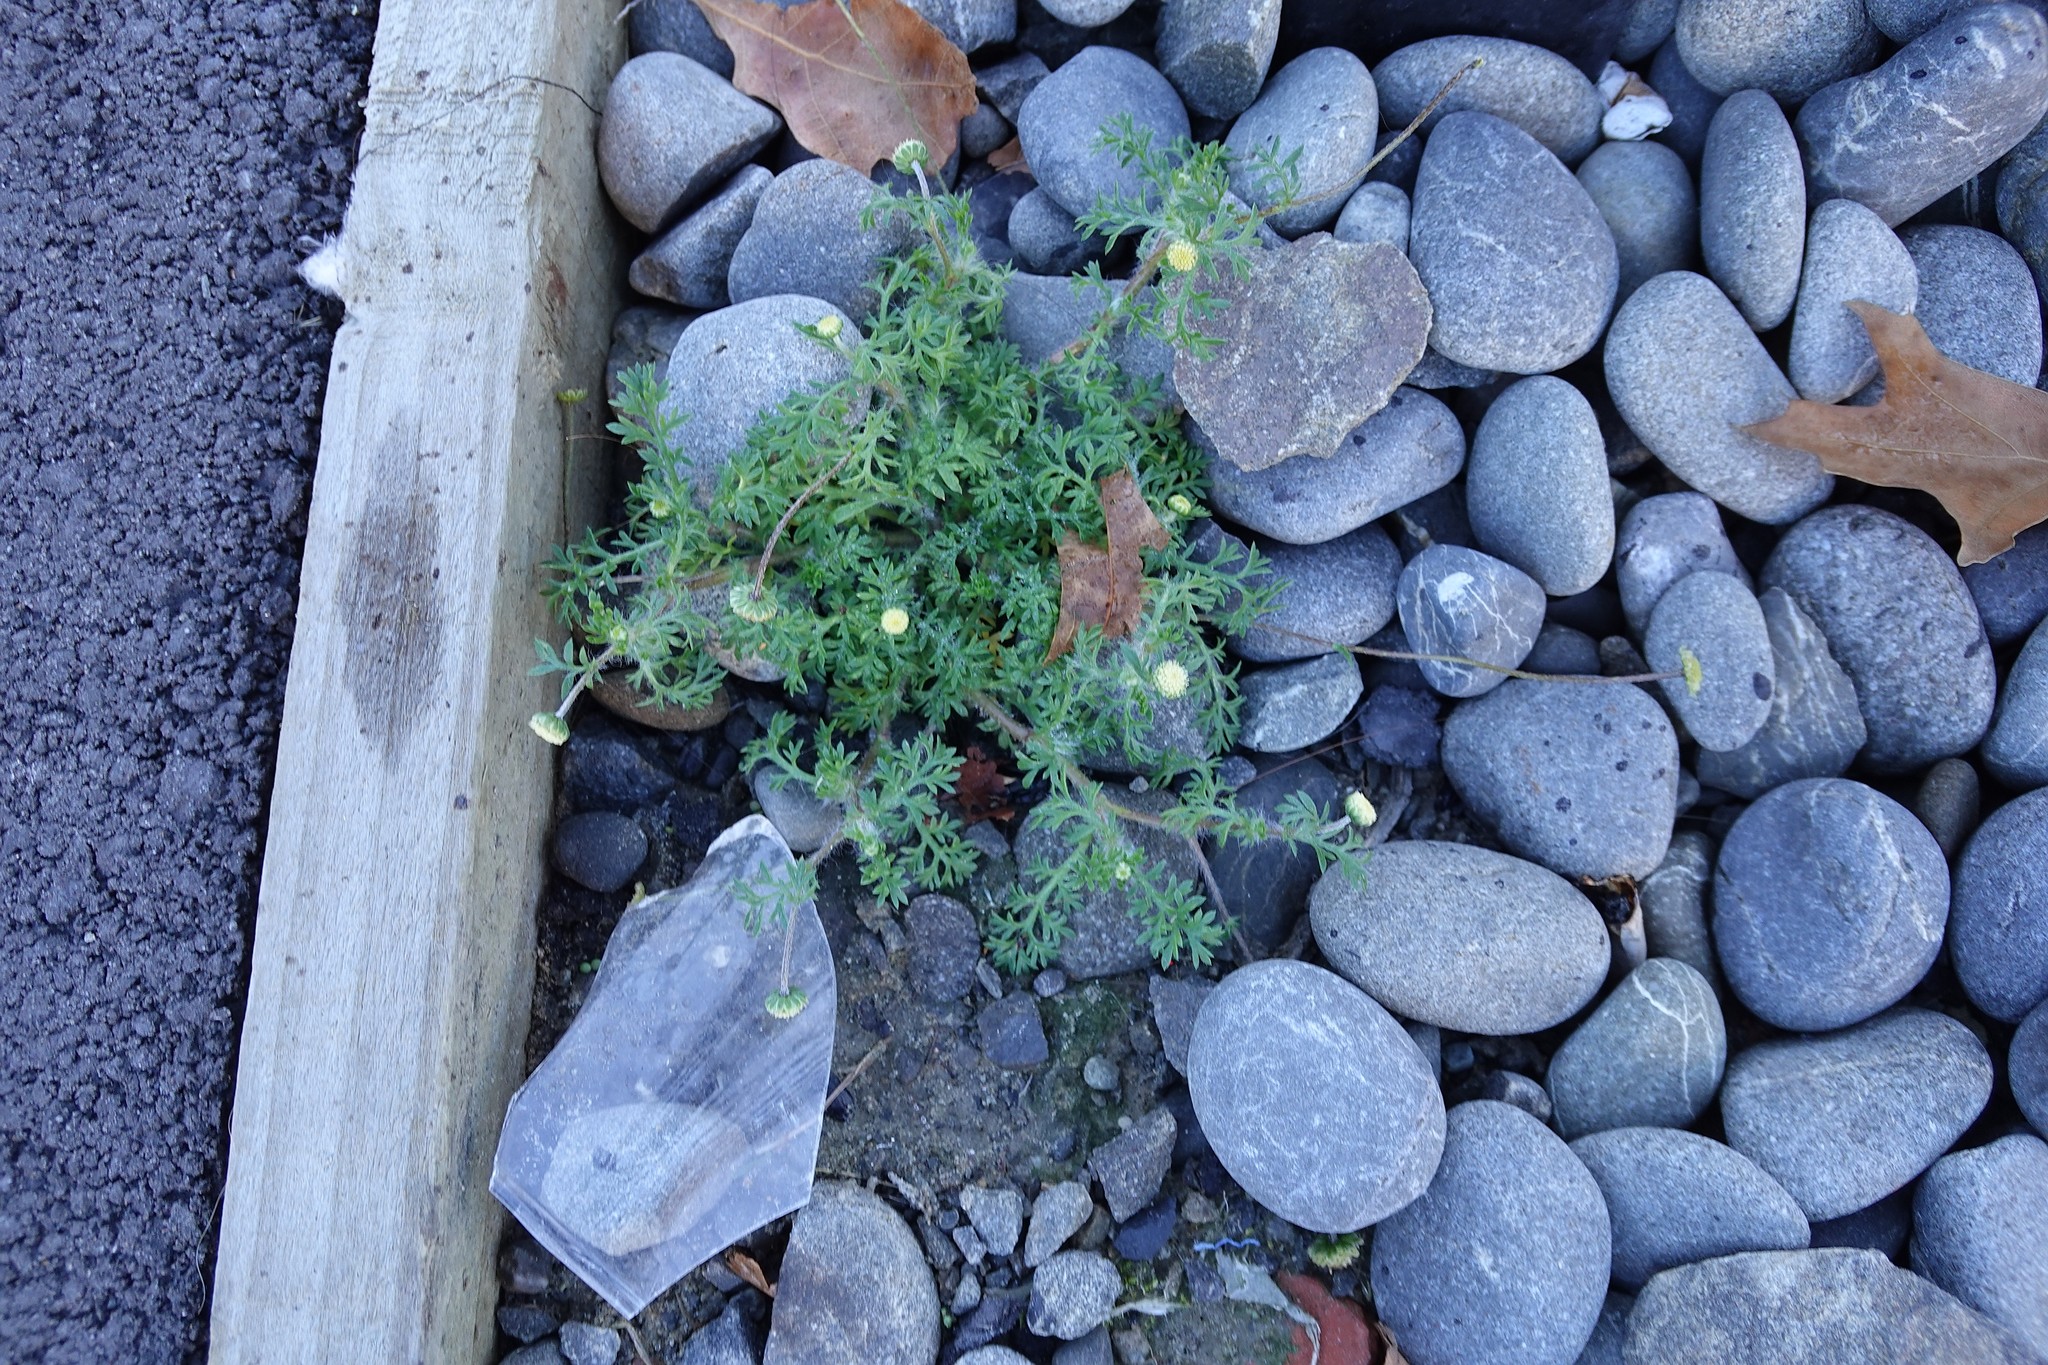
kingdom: Plantae
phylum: Tracheophyta
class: Magnoliopsida
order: Asterales
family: Asteraceae
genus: Cotula
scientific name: Cotula australis
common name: Australian waterbuttons
